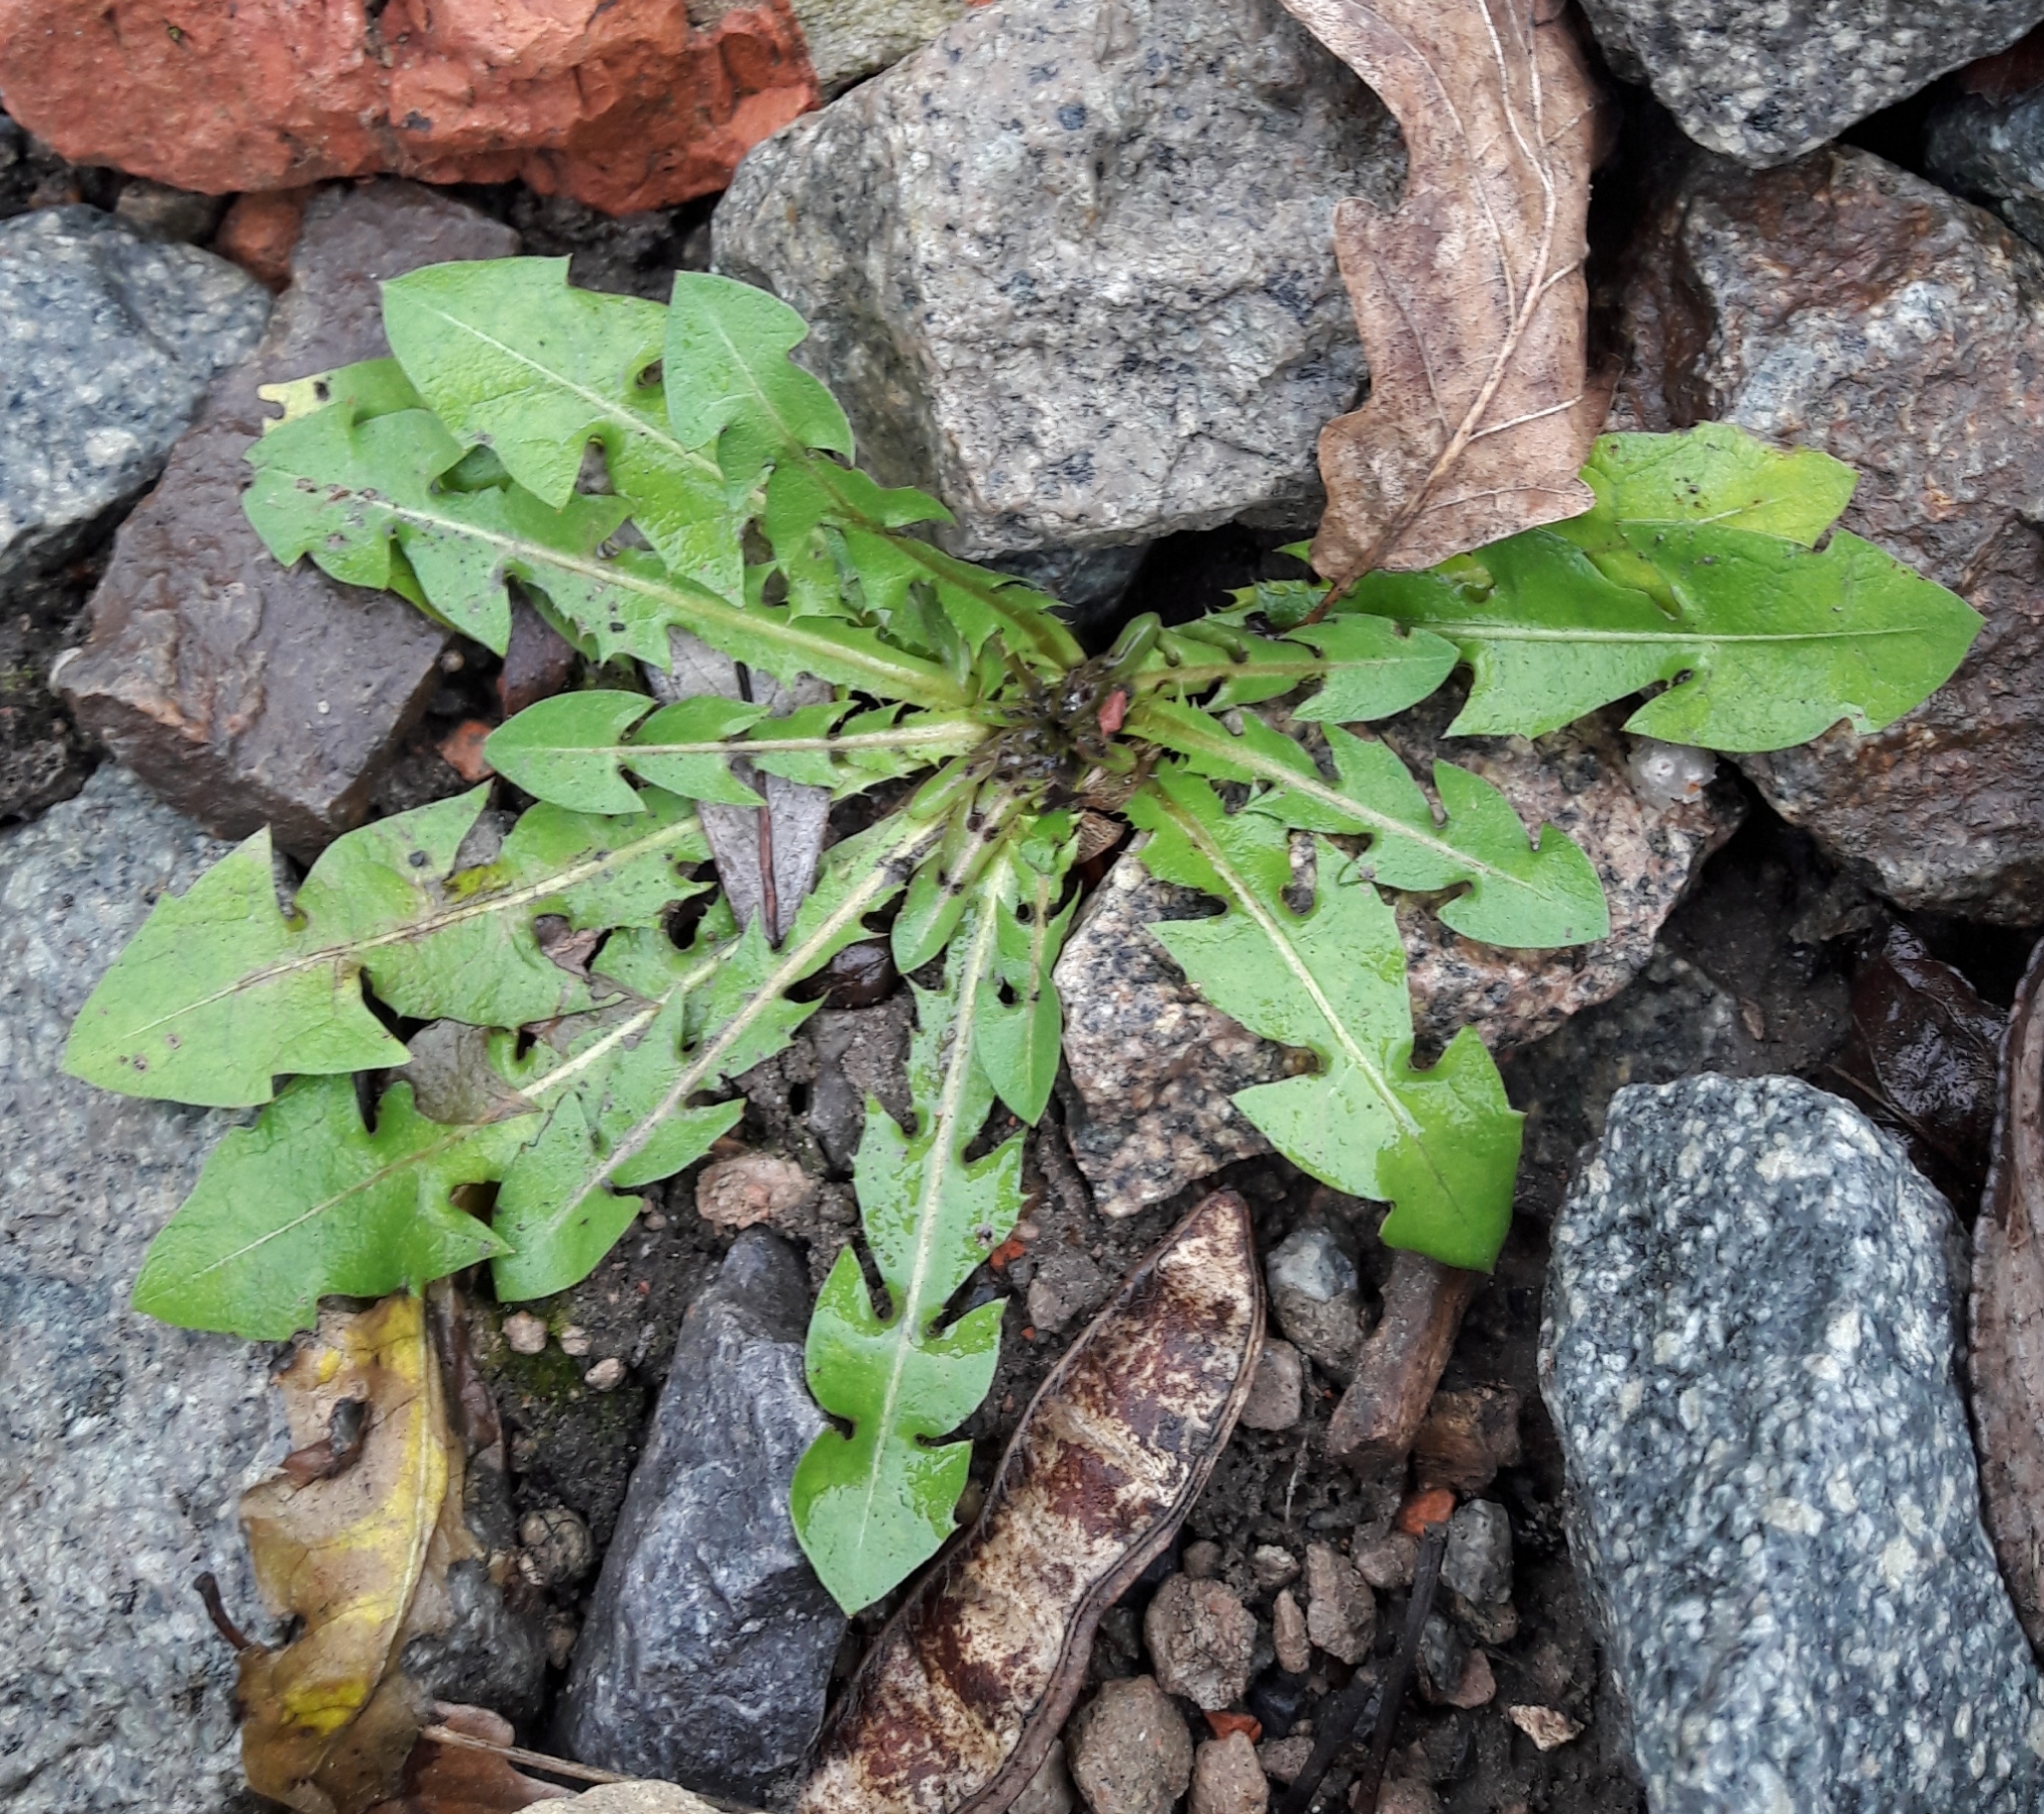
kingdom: Plantae
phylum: Tracheophyta
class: Magnoliopsida
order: Asterales
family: Asteraceae
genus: Taraxacum
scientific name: Taraxacum officinale
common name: Common dandelion
